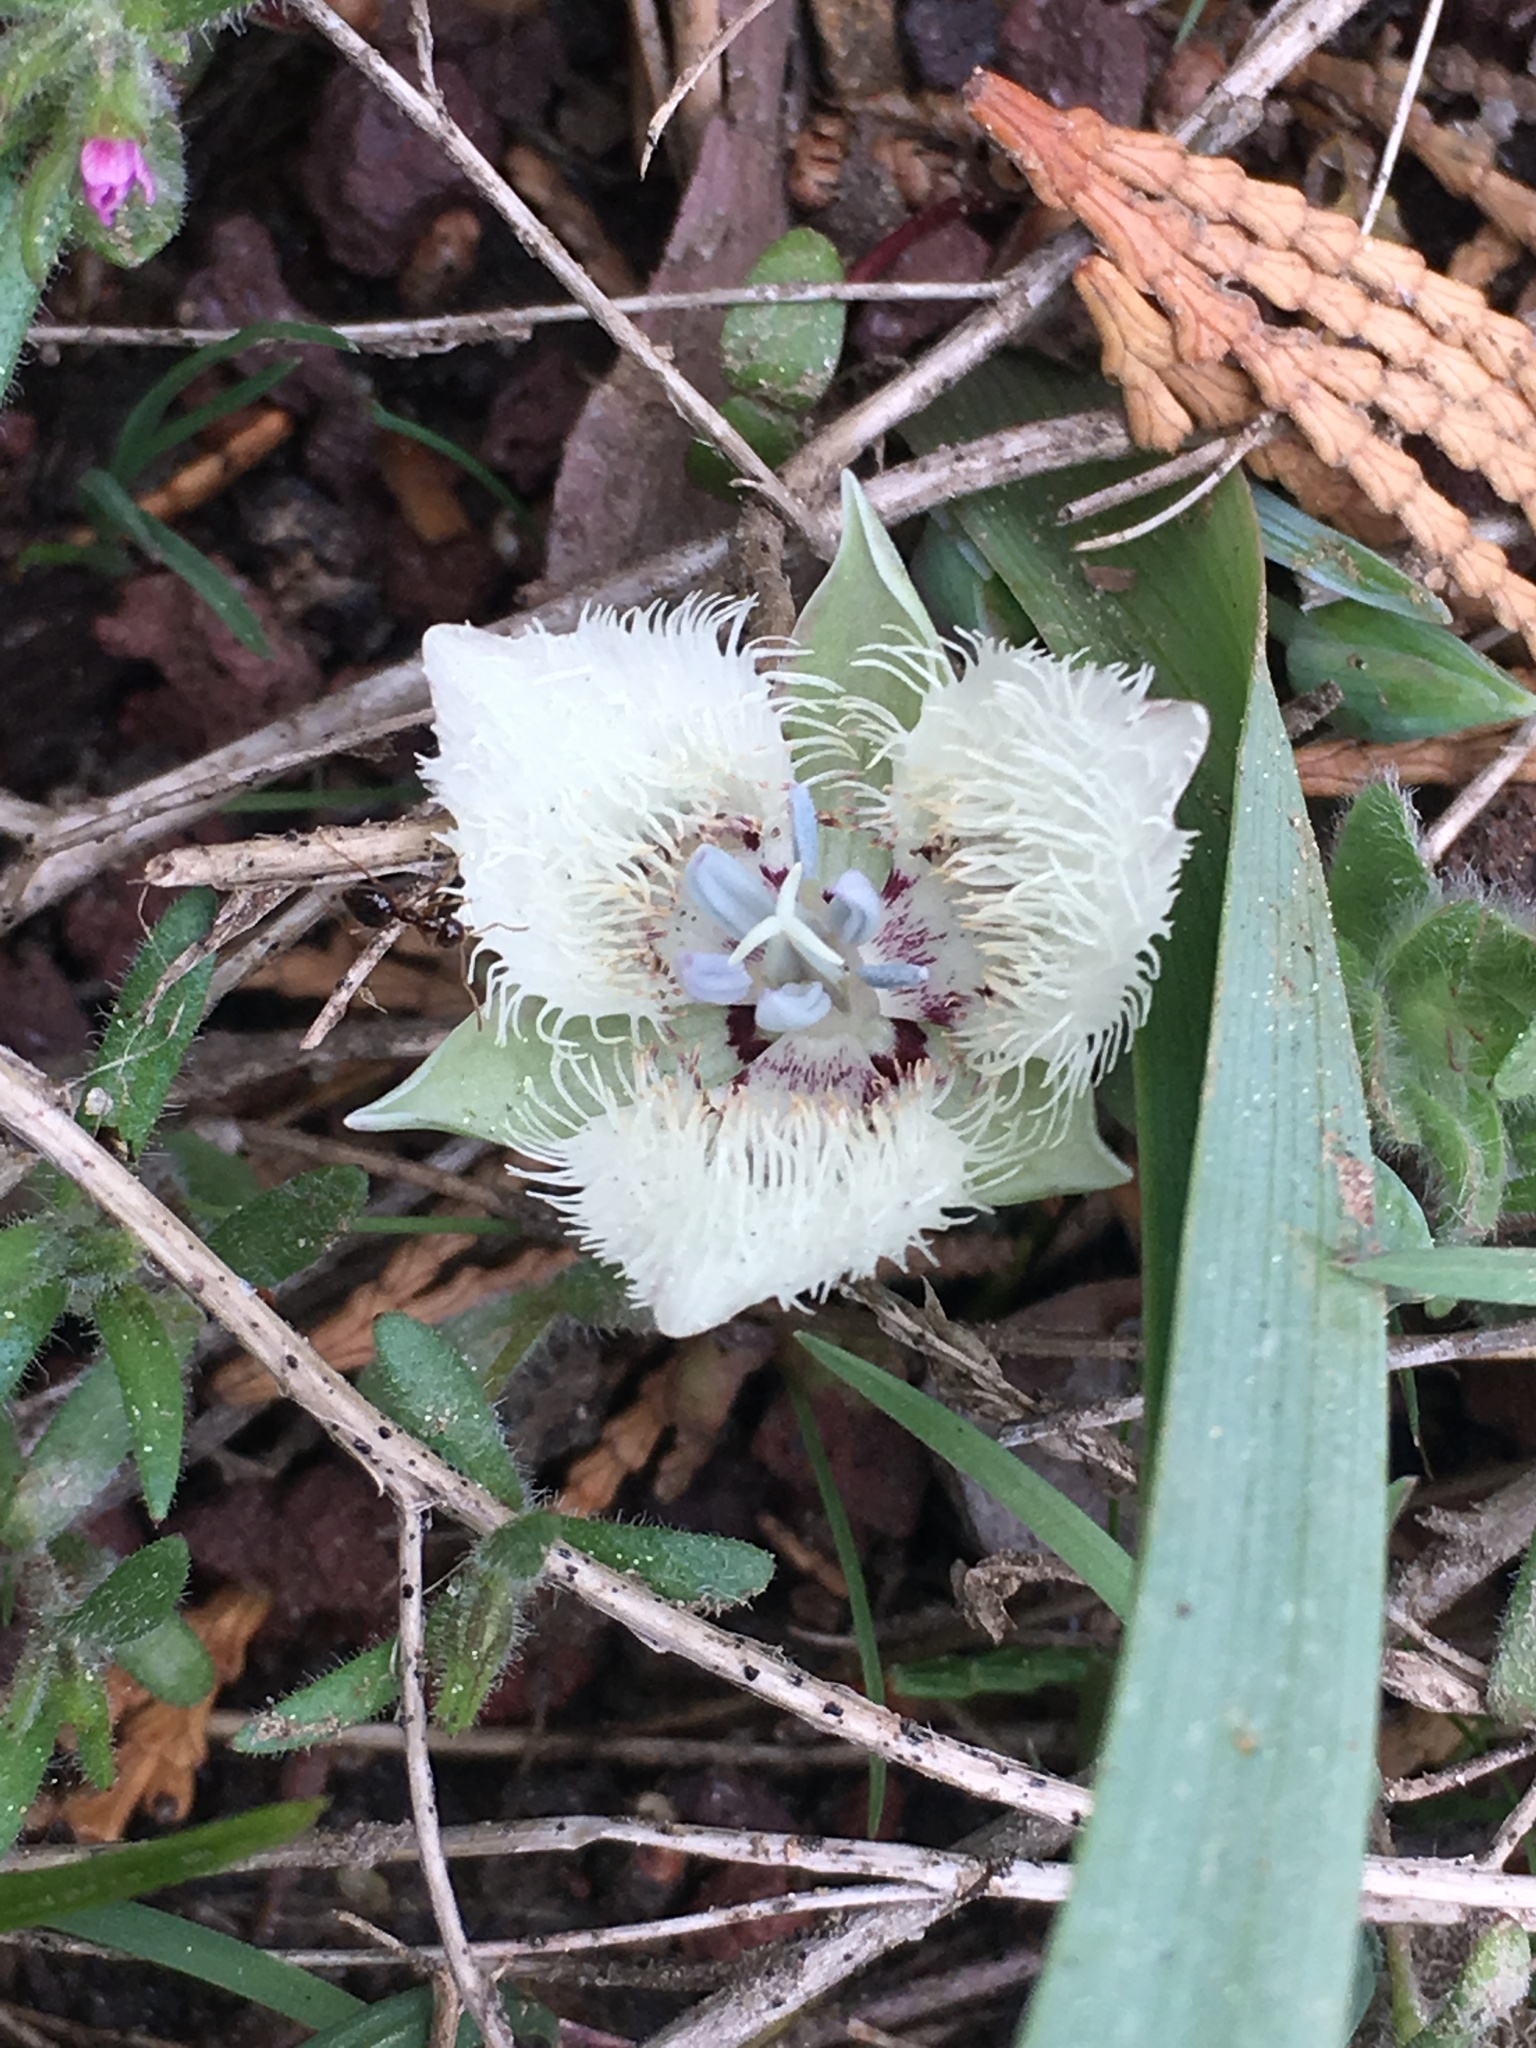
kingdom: Plantae
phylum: Tracheophyta
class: Liliopsida
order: Liliales
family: Liliaceae
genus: Calochortus
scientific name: Calochortus westonii
